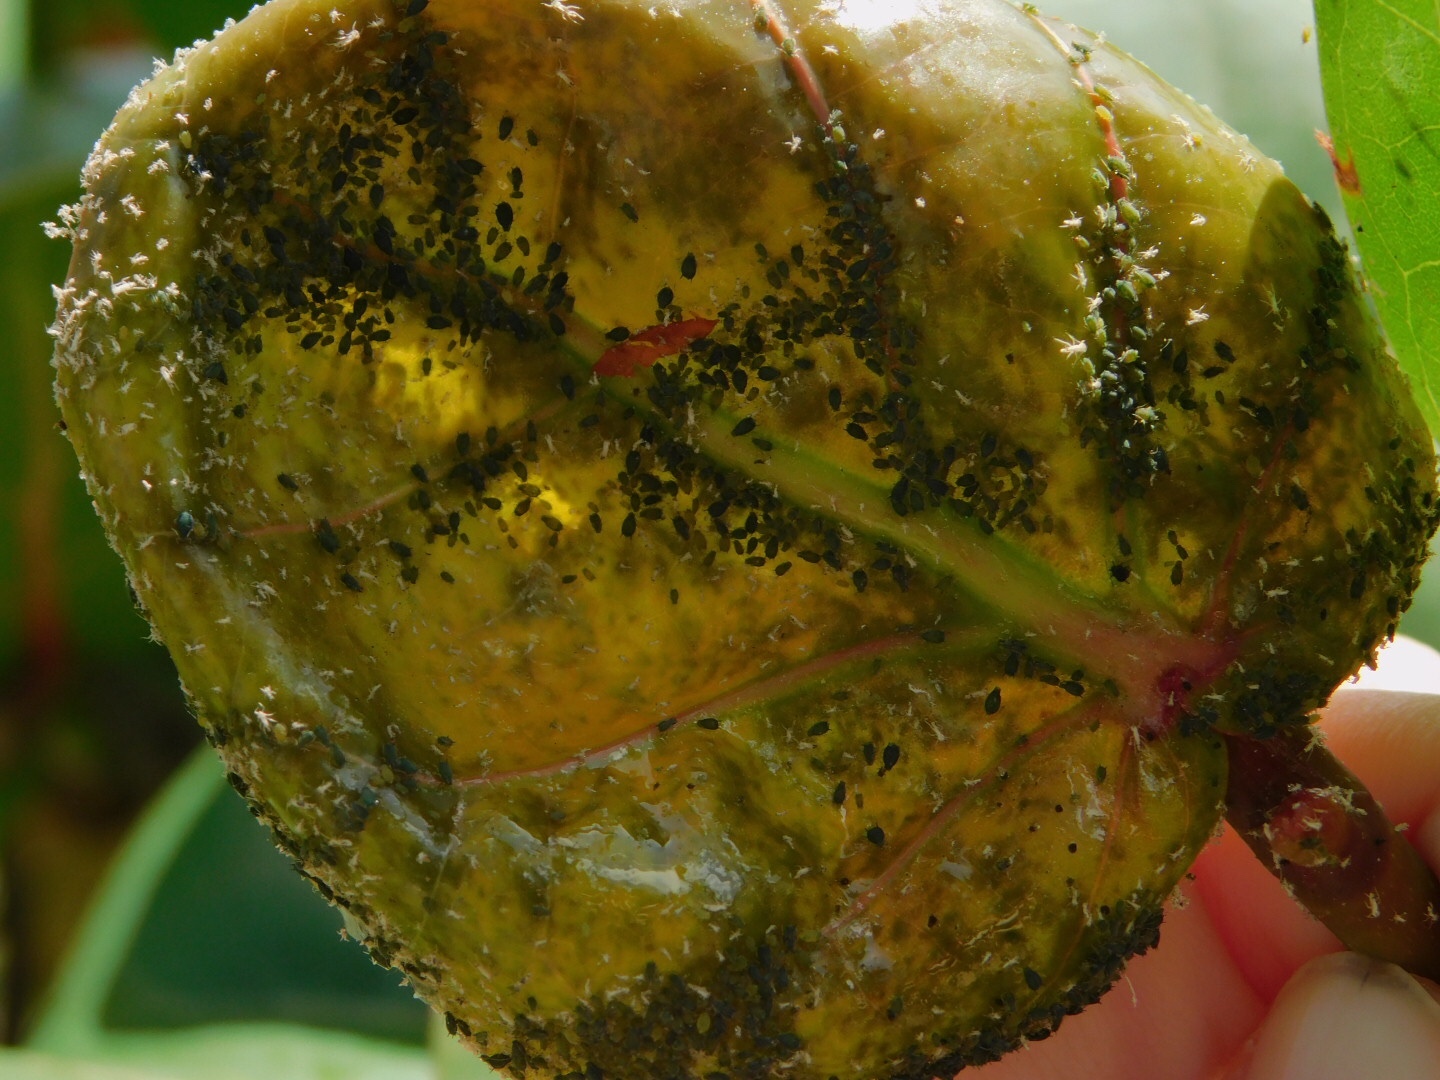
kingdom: Animalia
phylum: Arthropoda
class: Insecta
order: Hemiptera
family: Aphididae
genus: Aphis
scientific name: Aphis gossypii
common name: Melon aphid
